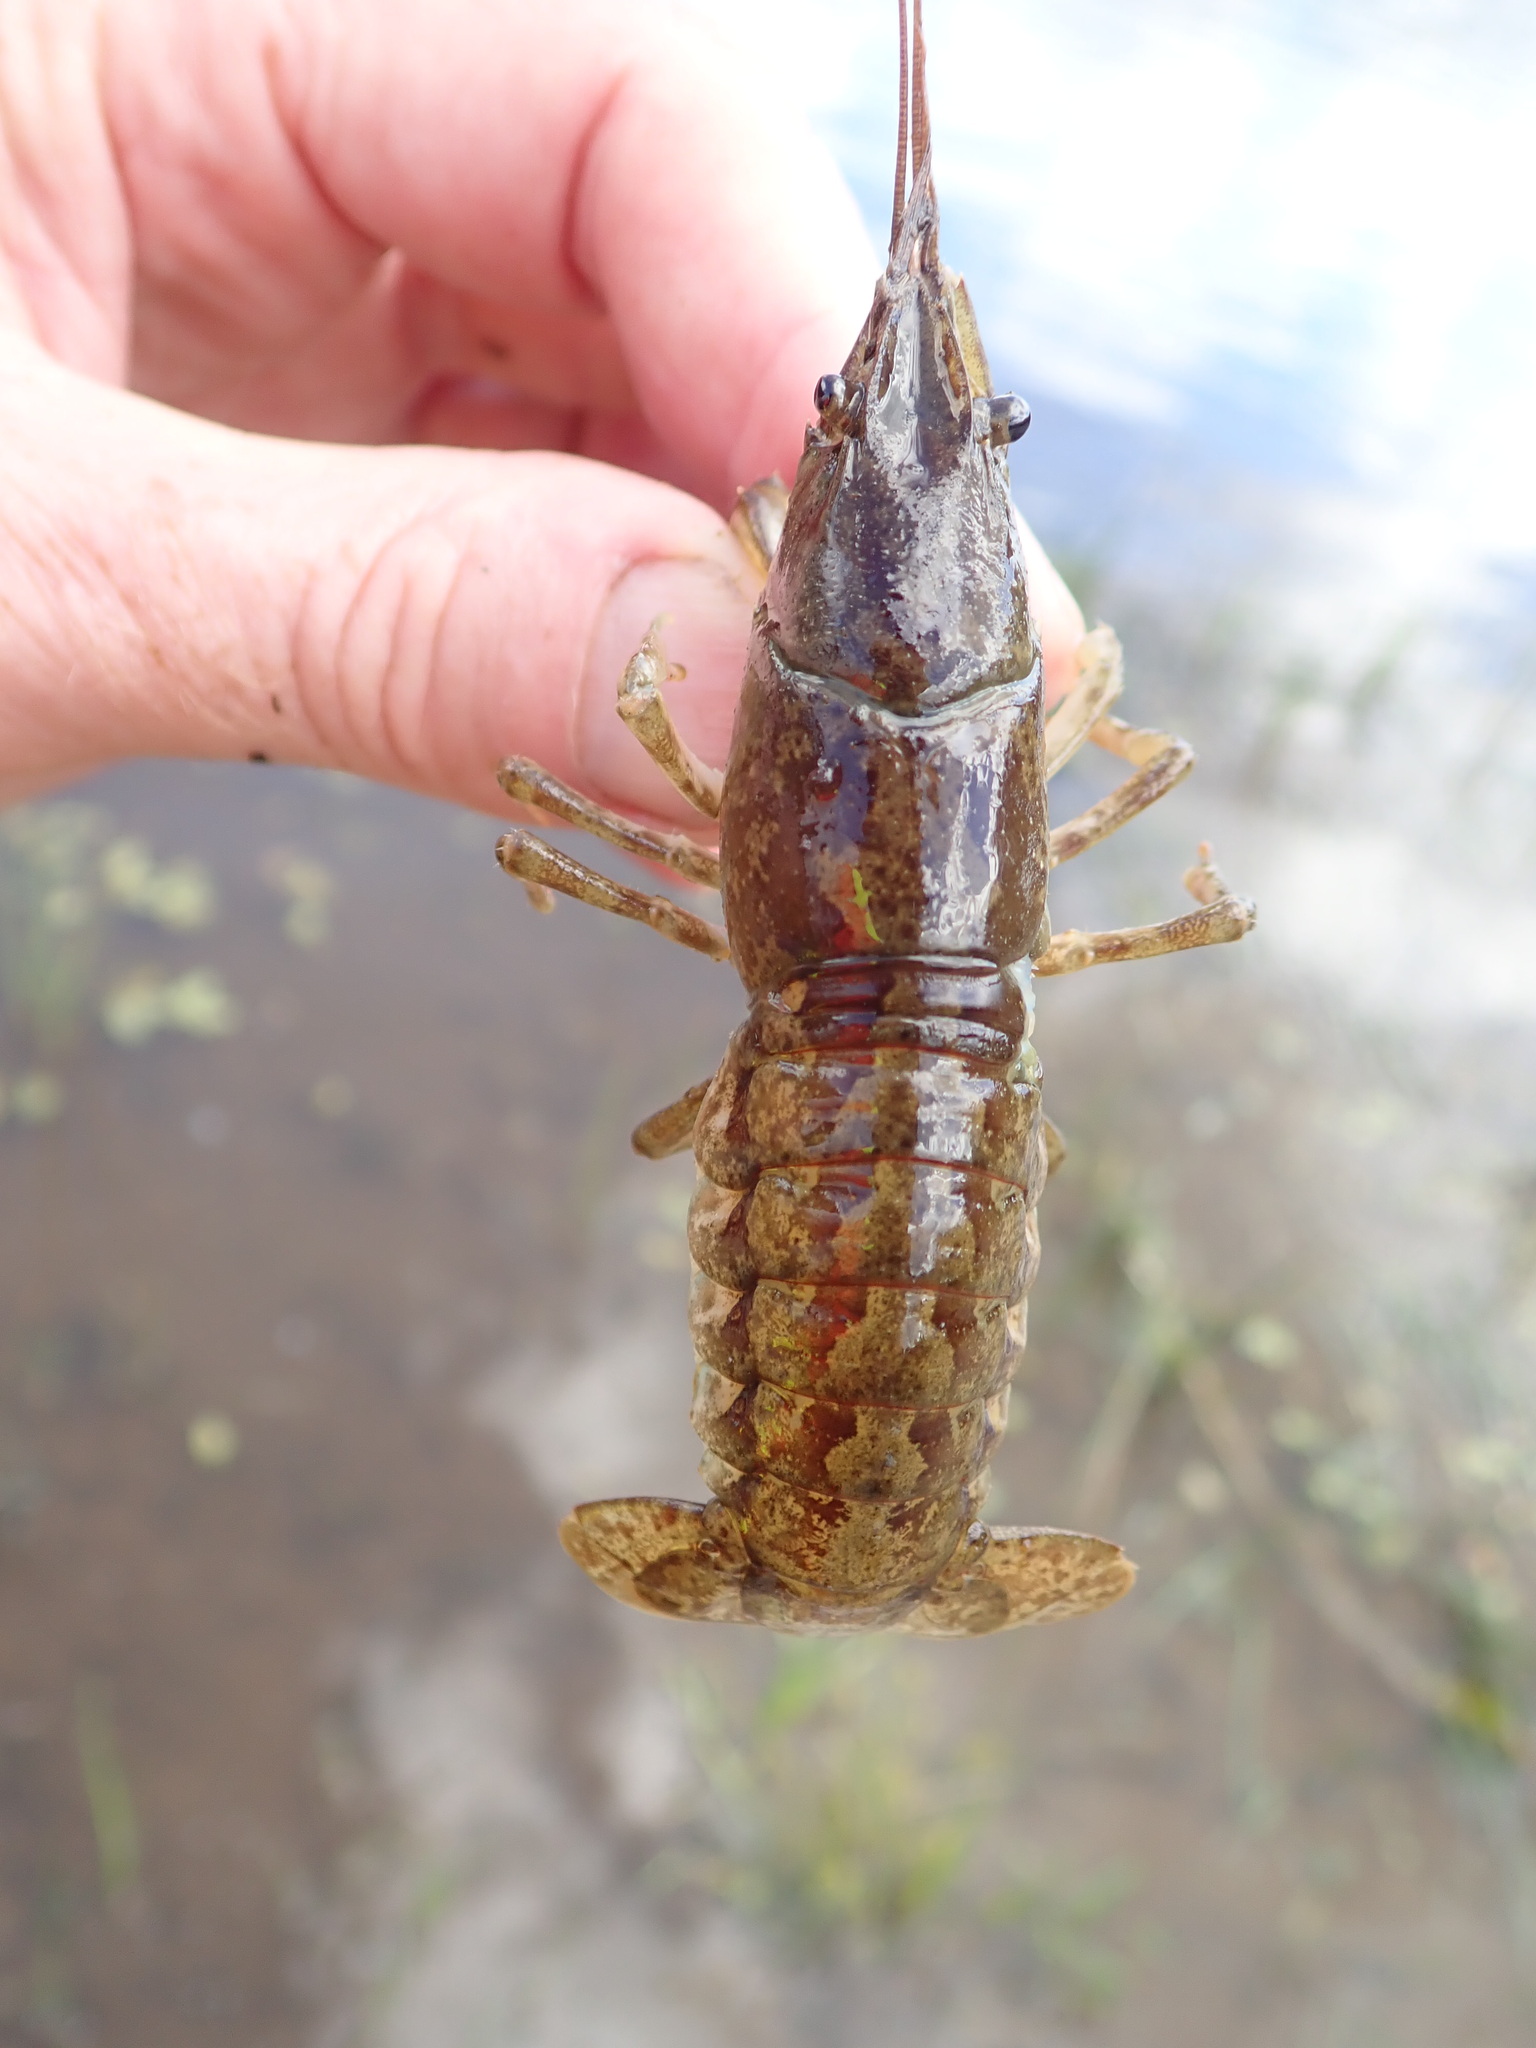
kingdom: Animalia
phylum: Arthropoda
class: Malacostraca
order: Decapoda
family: Cambaridae
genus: Faxonius
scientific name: Faxonius immunis
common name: Calico crayfish
